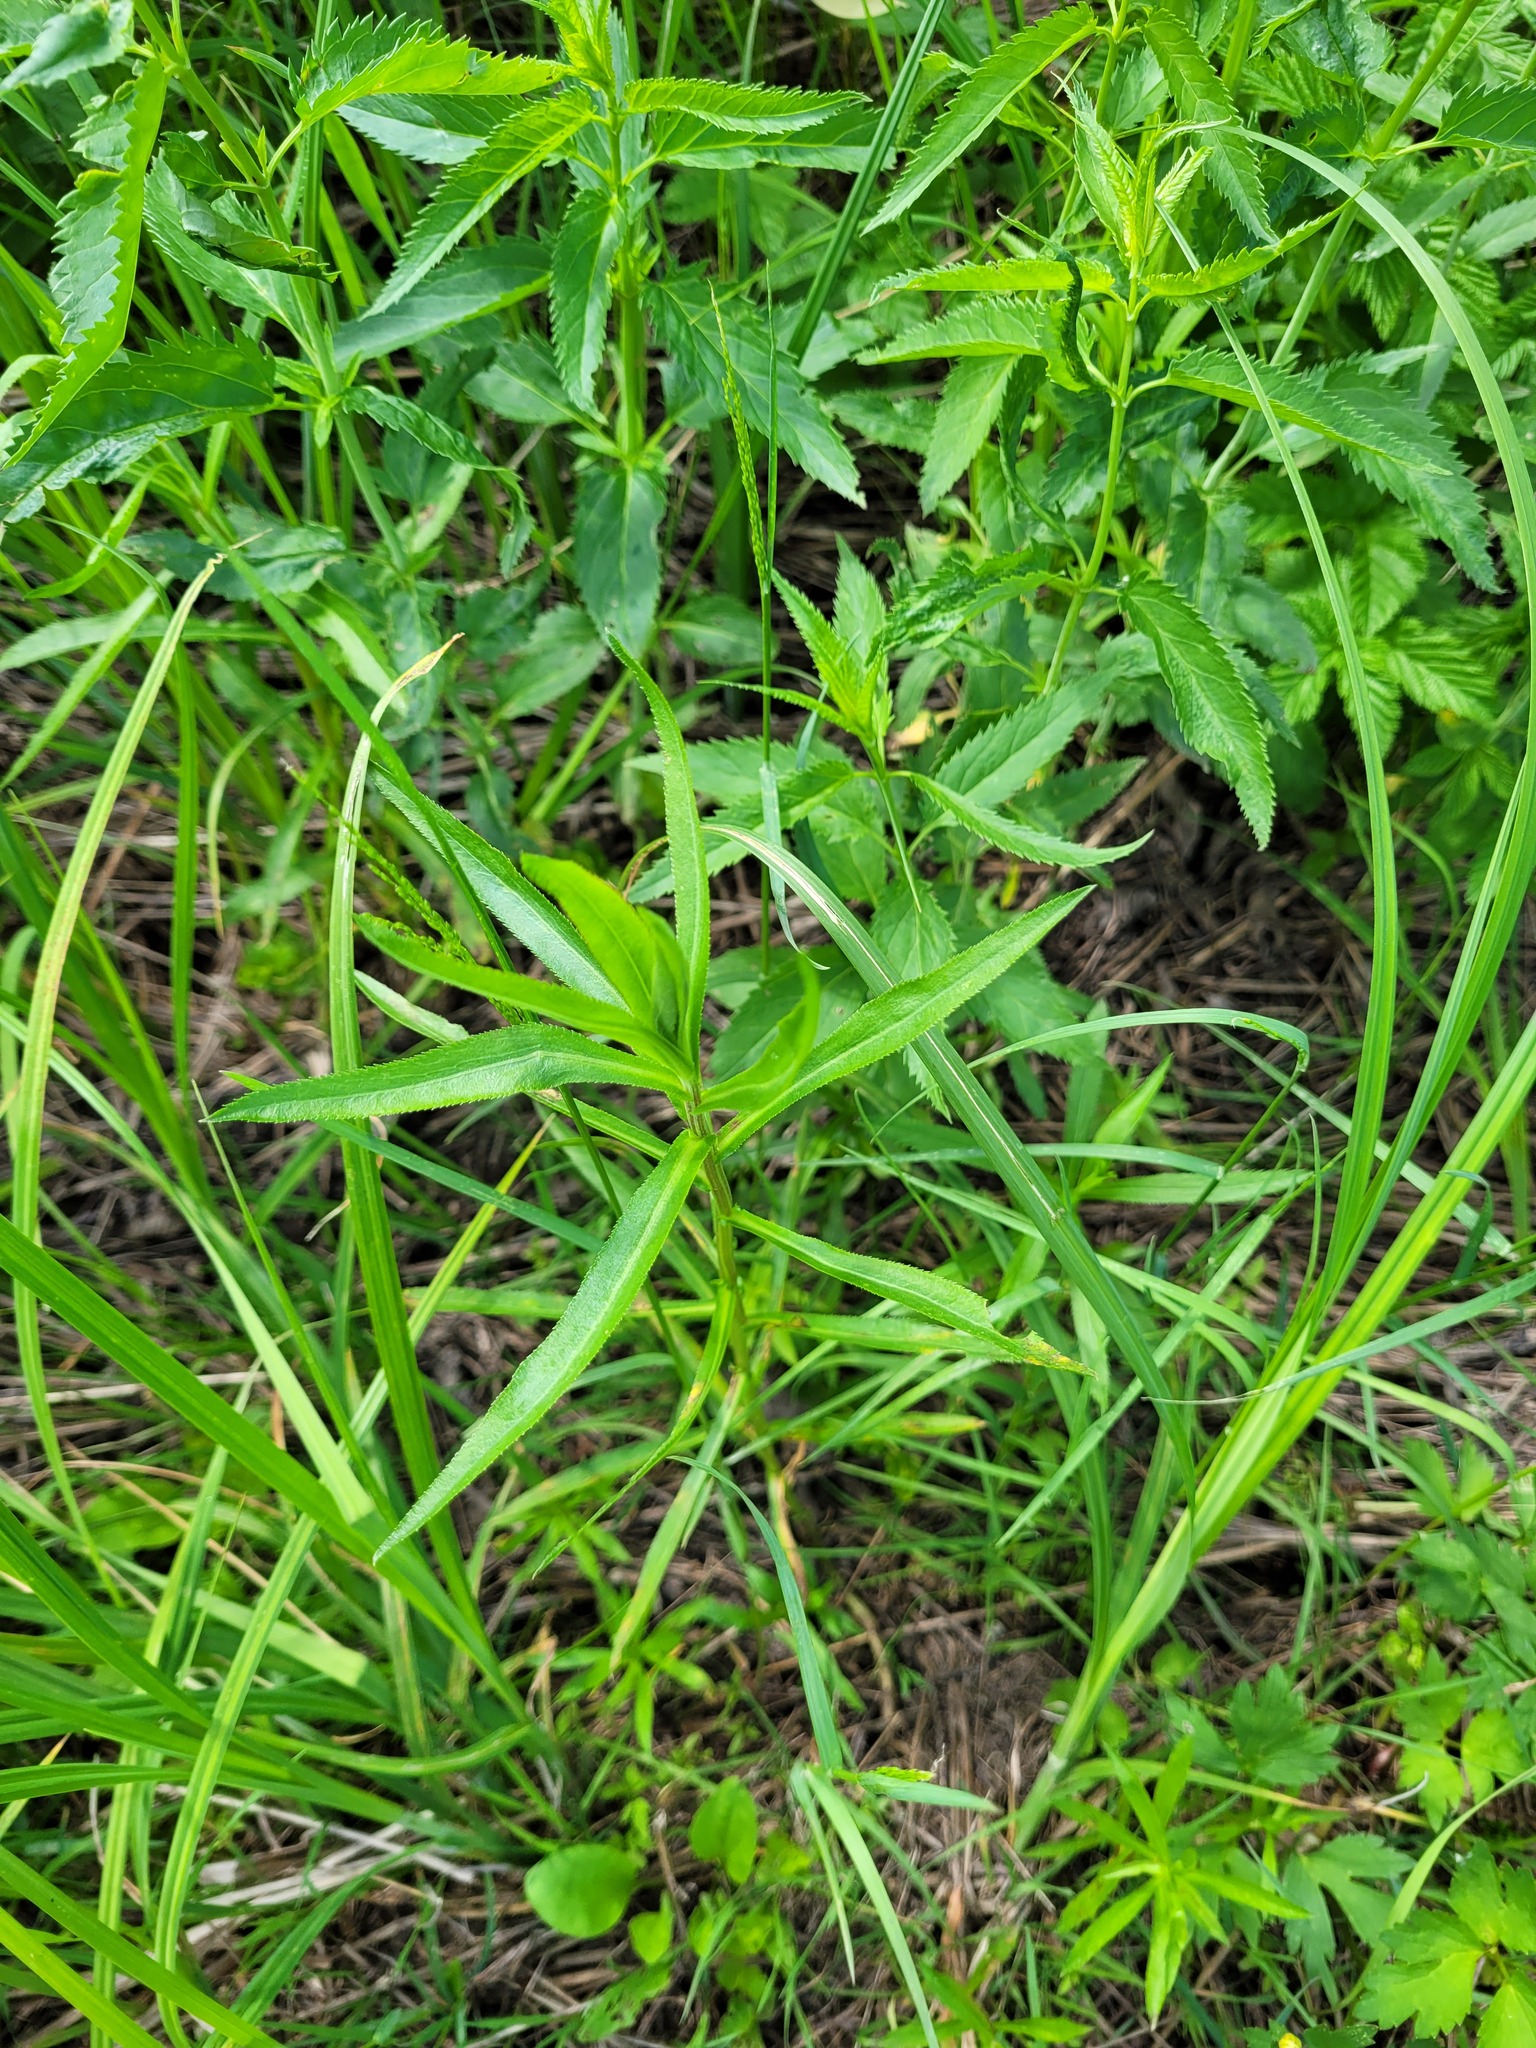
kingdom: Plantae
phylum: Tracheophyta
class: Magnoliopsida
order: Asterales
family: Asteraceae
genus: Achillea
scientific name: Achillea salicifolia
